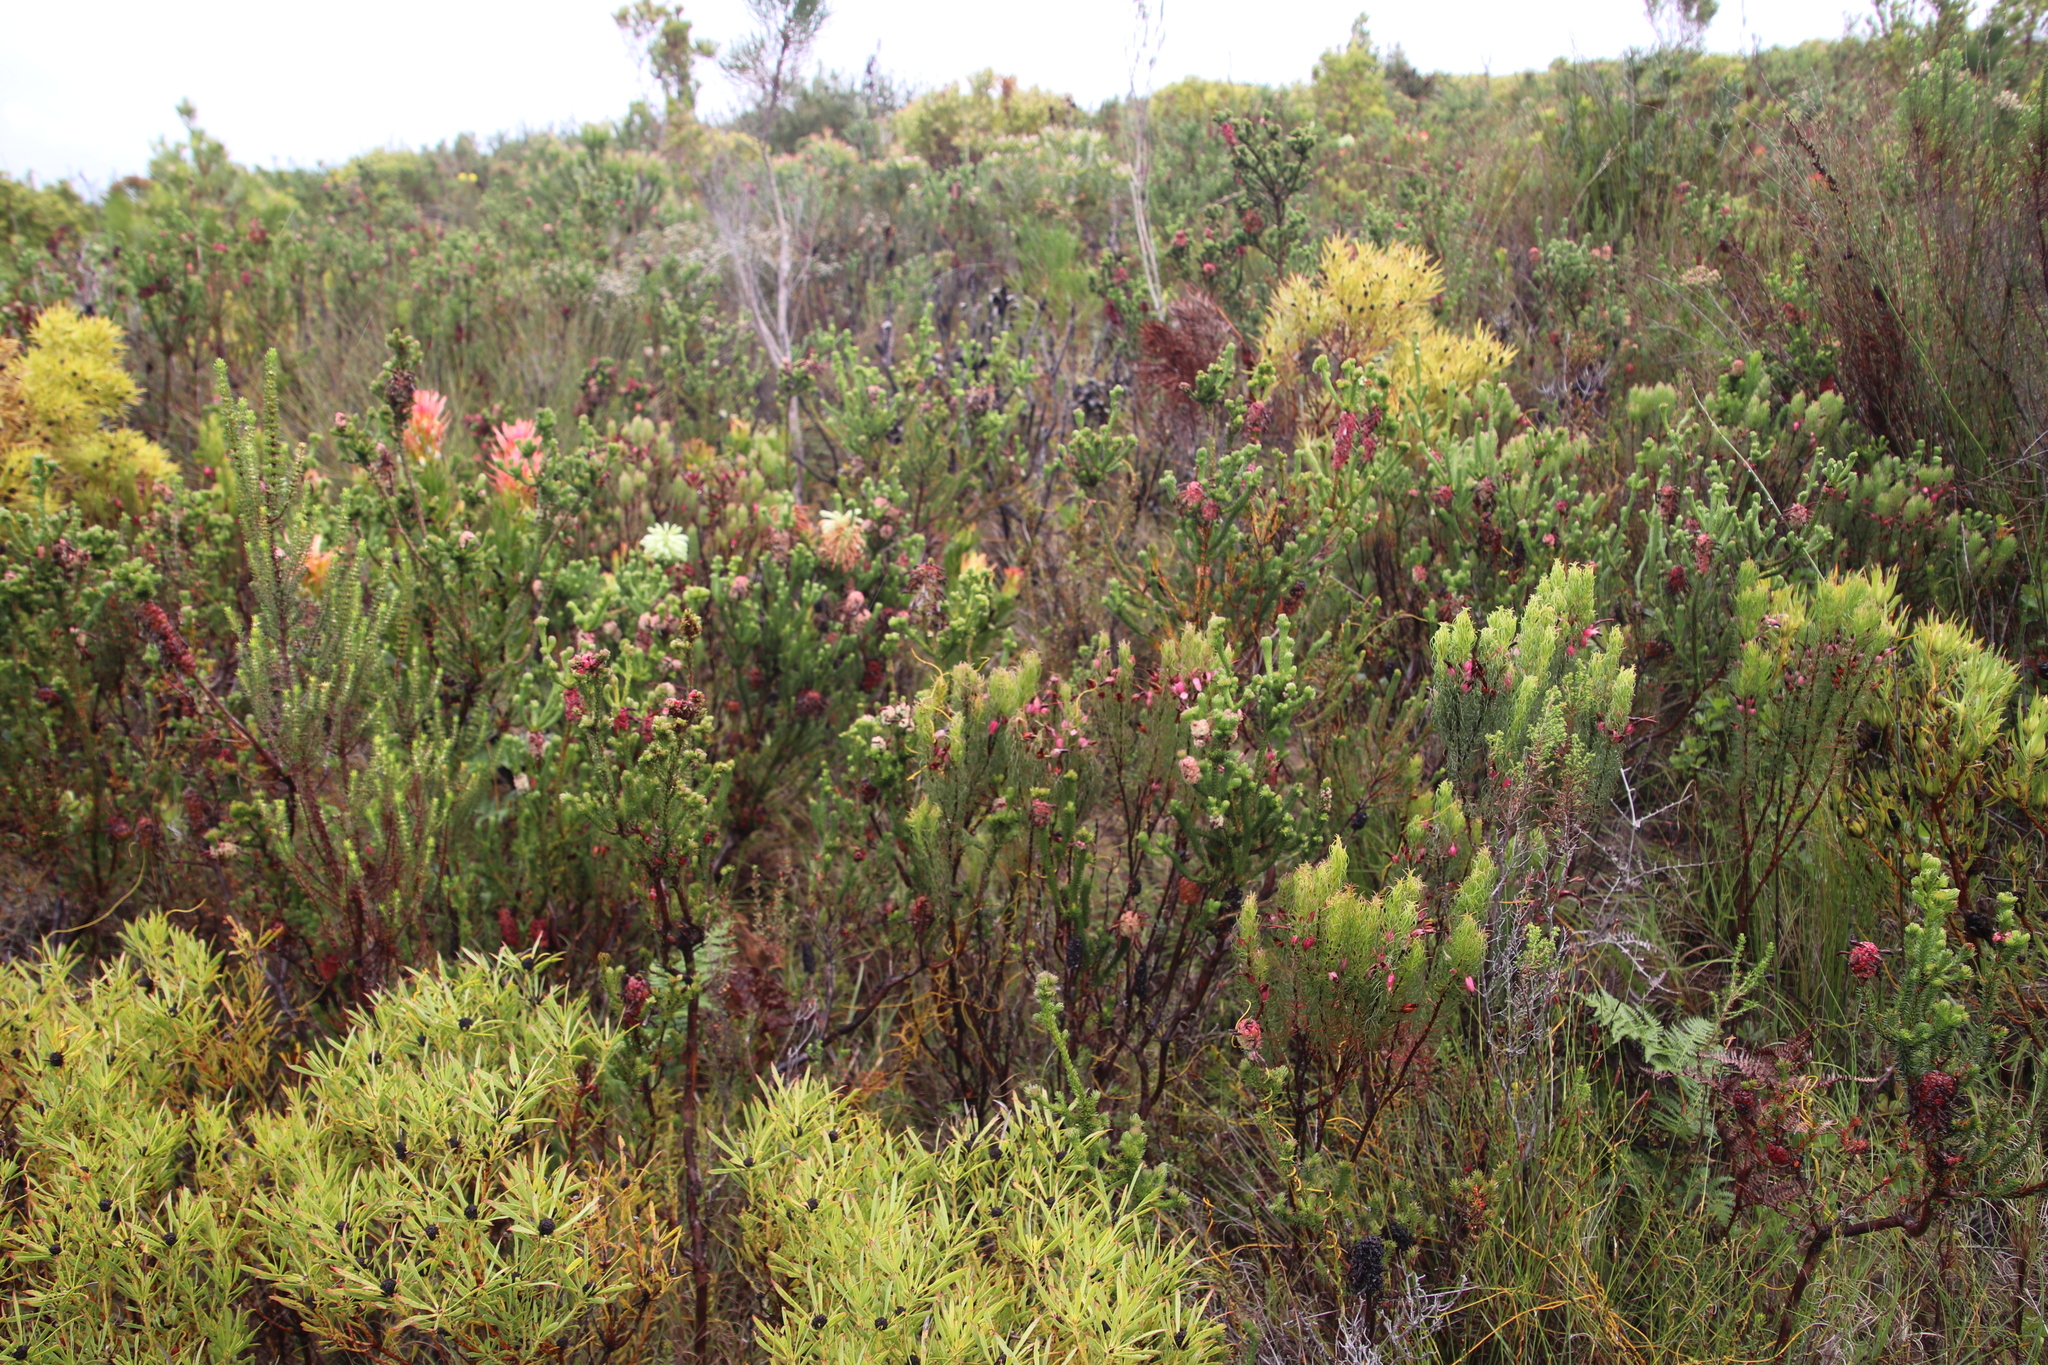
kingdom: Plantae
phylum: Tracheophyta
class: Magnoliopsida
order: Ericales
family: Ericaceae
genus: Erica
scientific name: Erica sessiliflora
